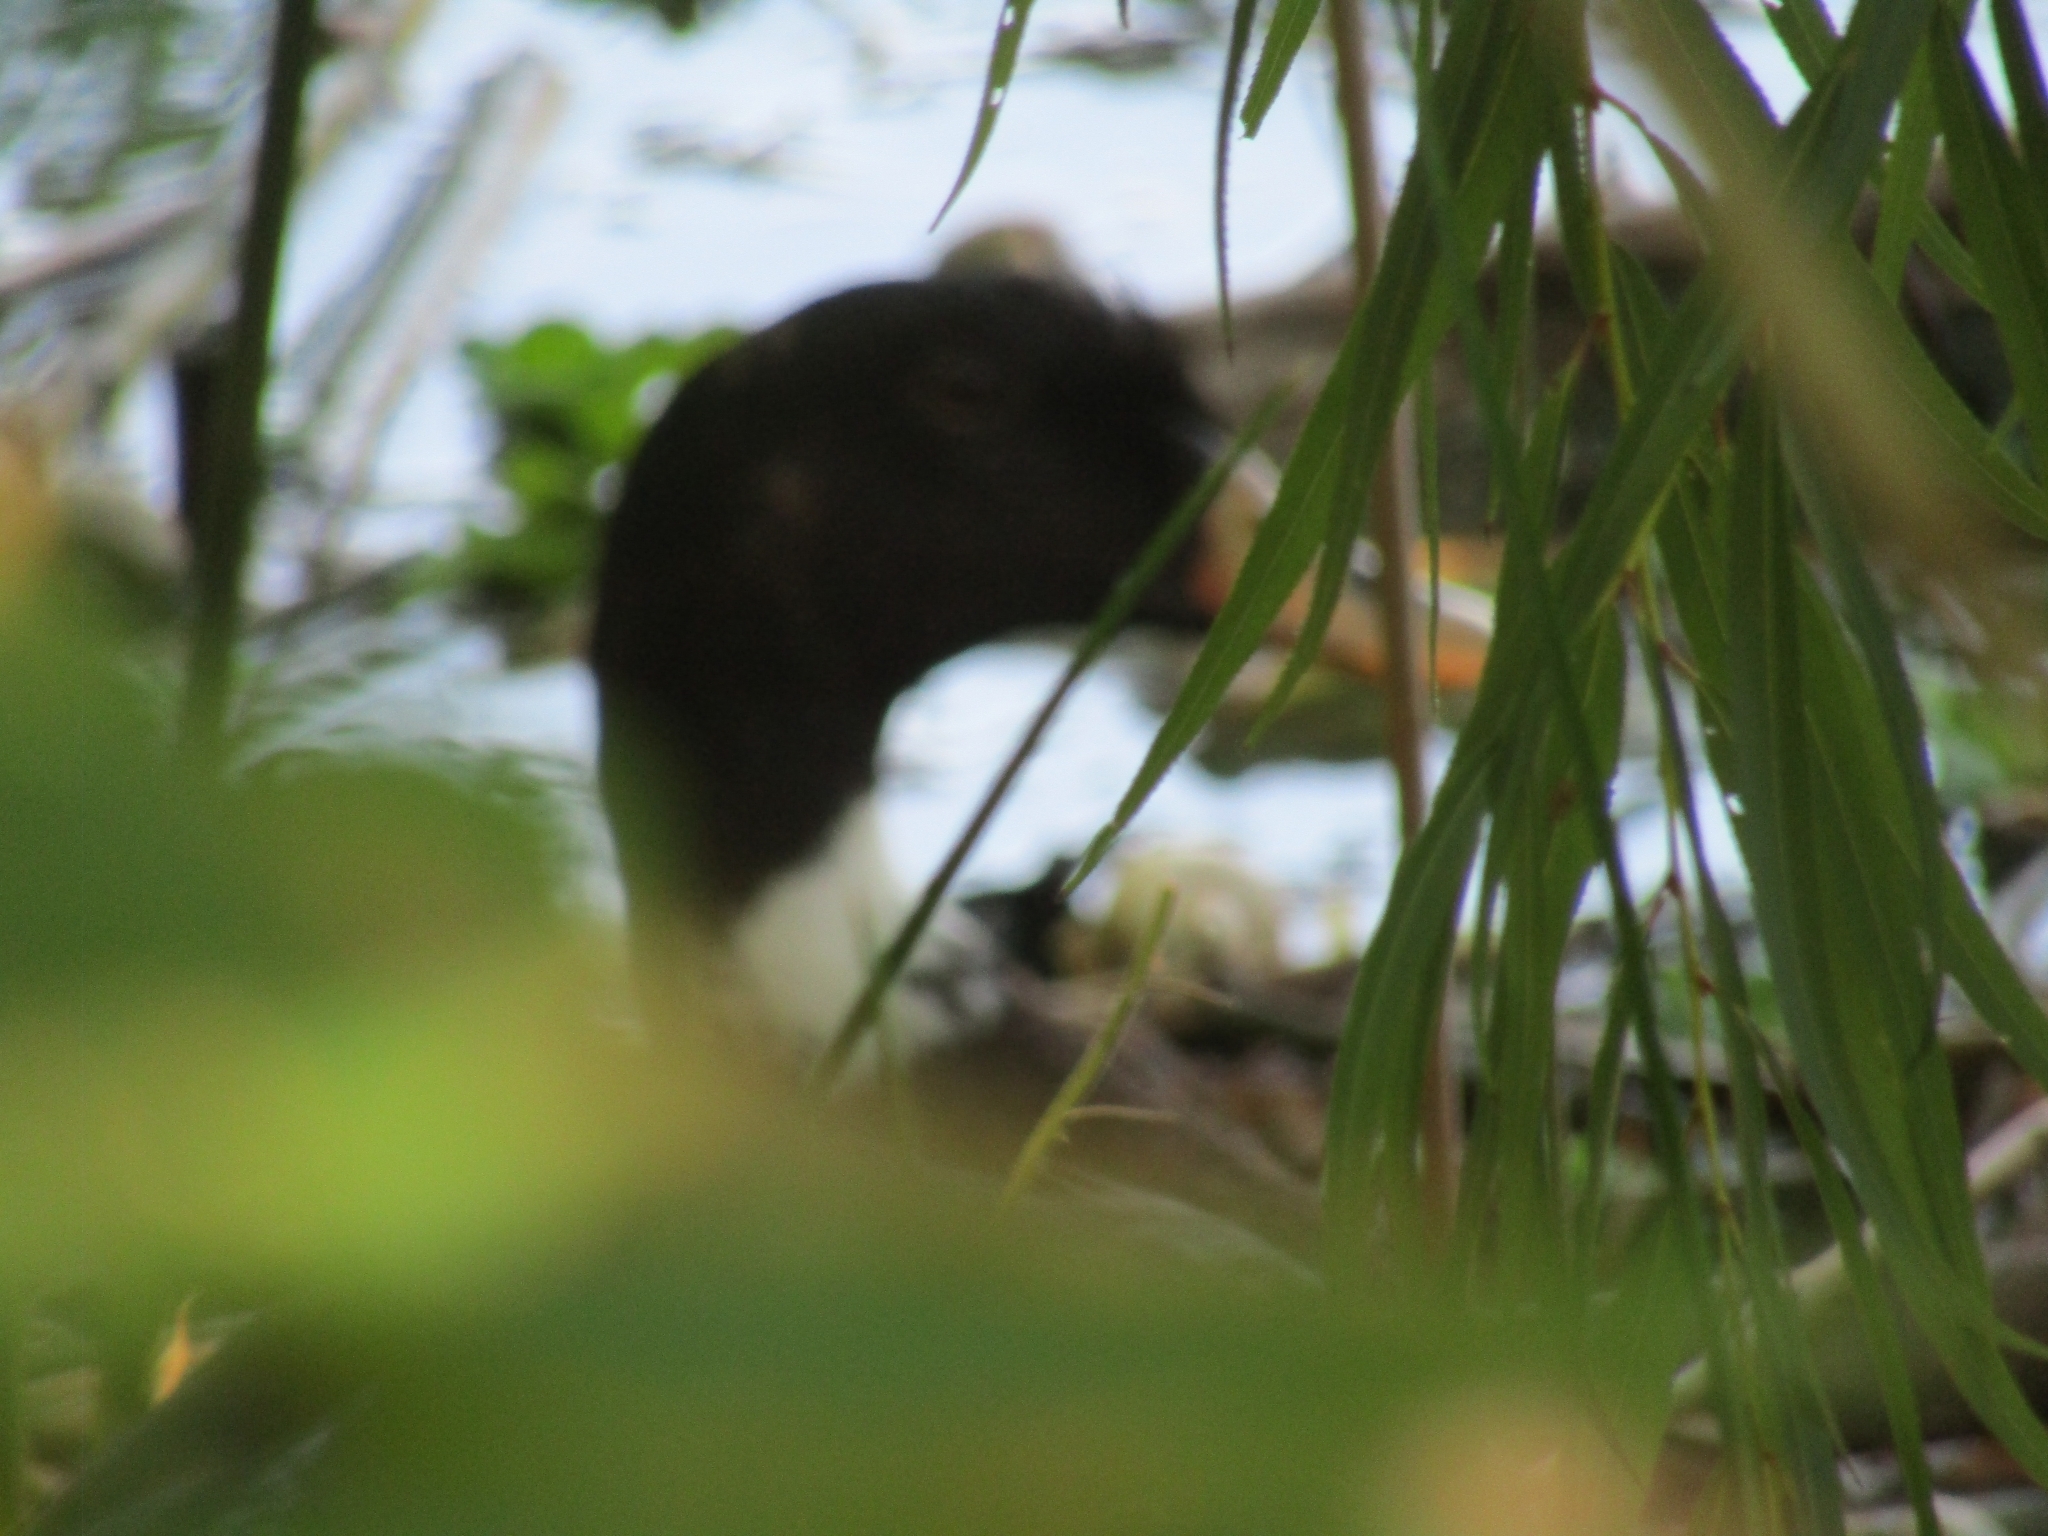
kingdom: Animalia
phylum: Chordata
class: Aves
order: Anseriformes
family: Anatidae
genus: Anas
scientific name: Anas platyrhynchos
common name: Mallard
